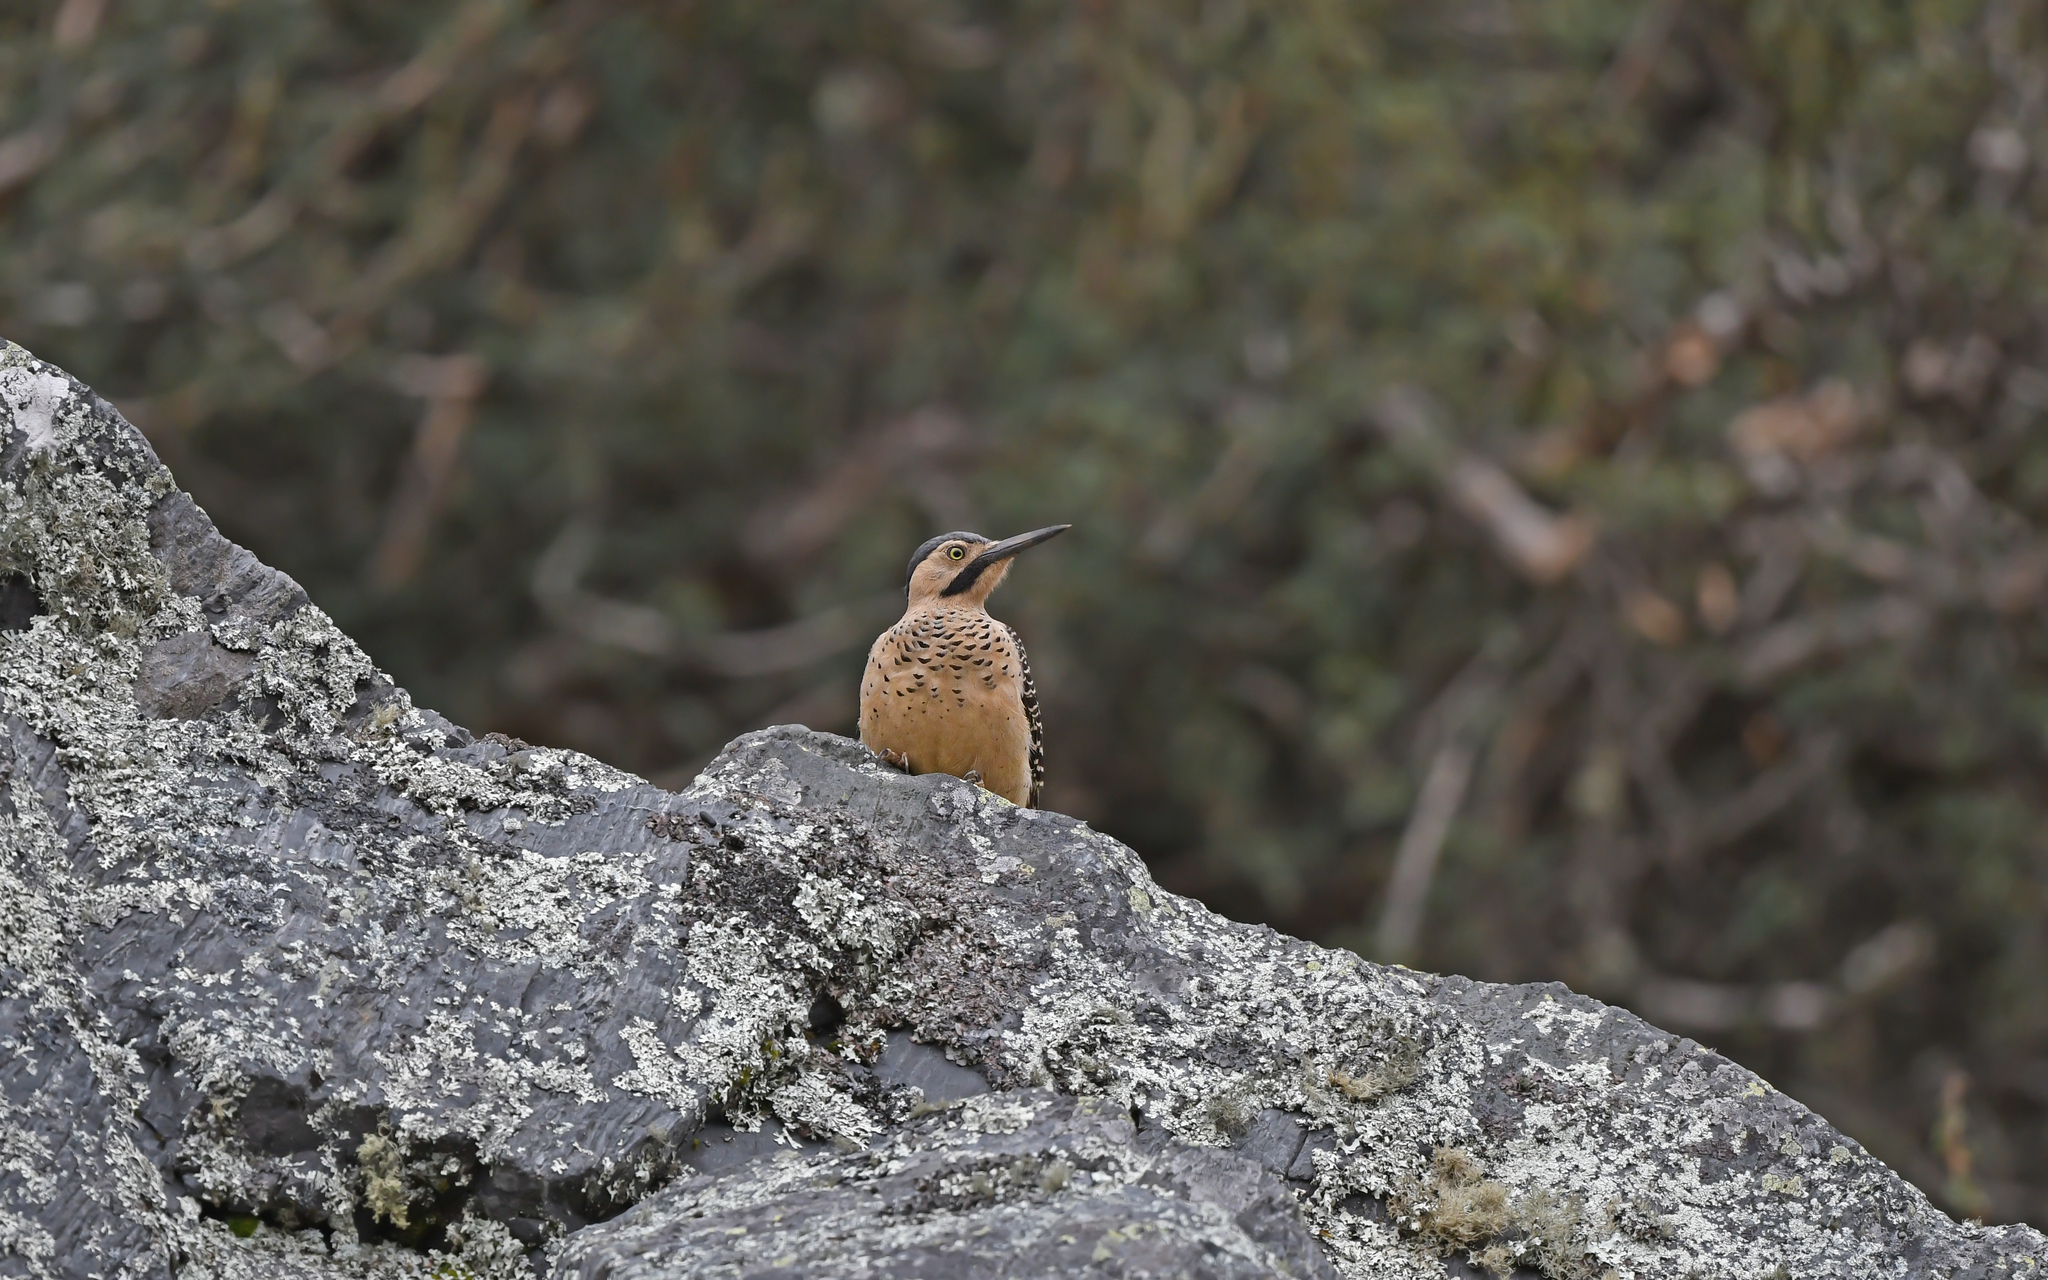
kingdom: Animalia
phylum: Chordata
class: Aves
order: Piciformes
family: Picidae
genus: Colaptes
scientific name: Colaptes rupicola
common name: Andean flicker
